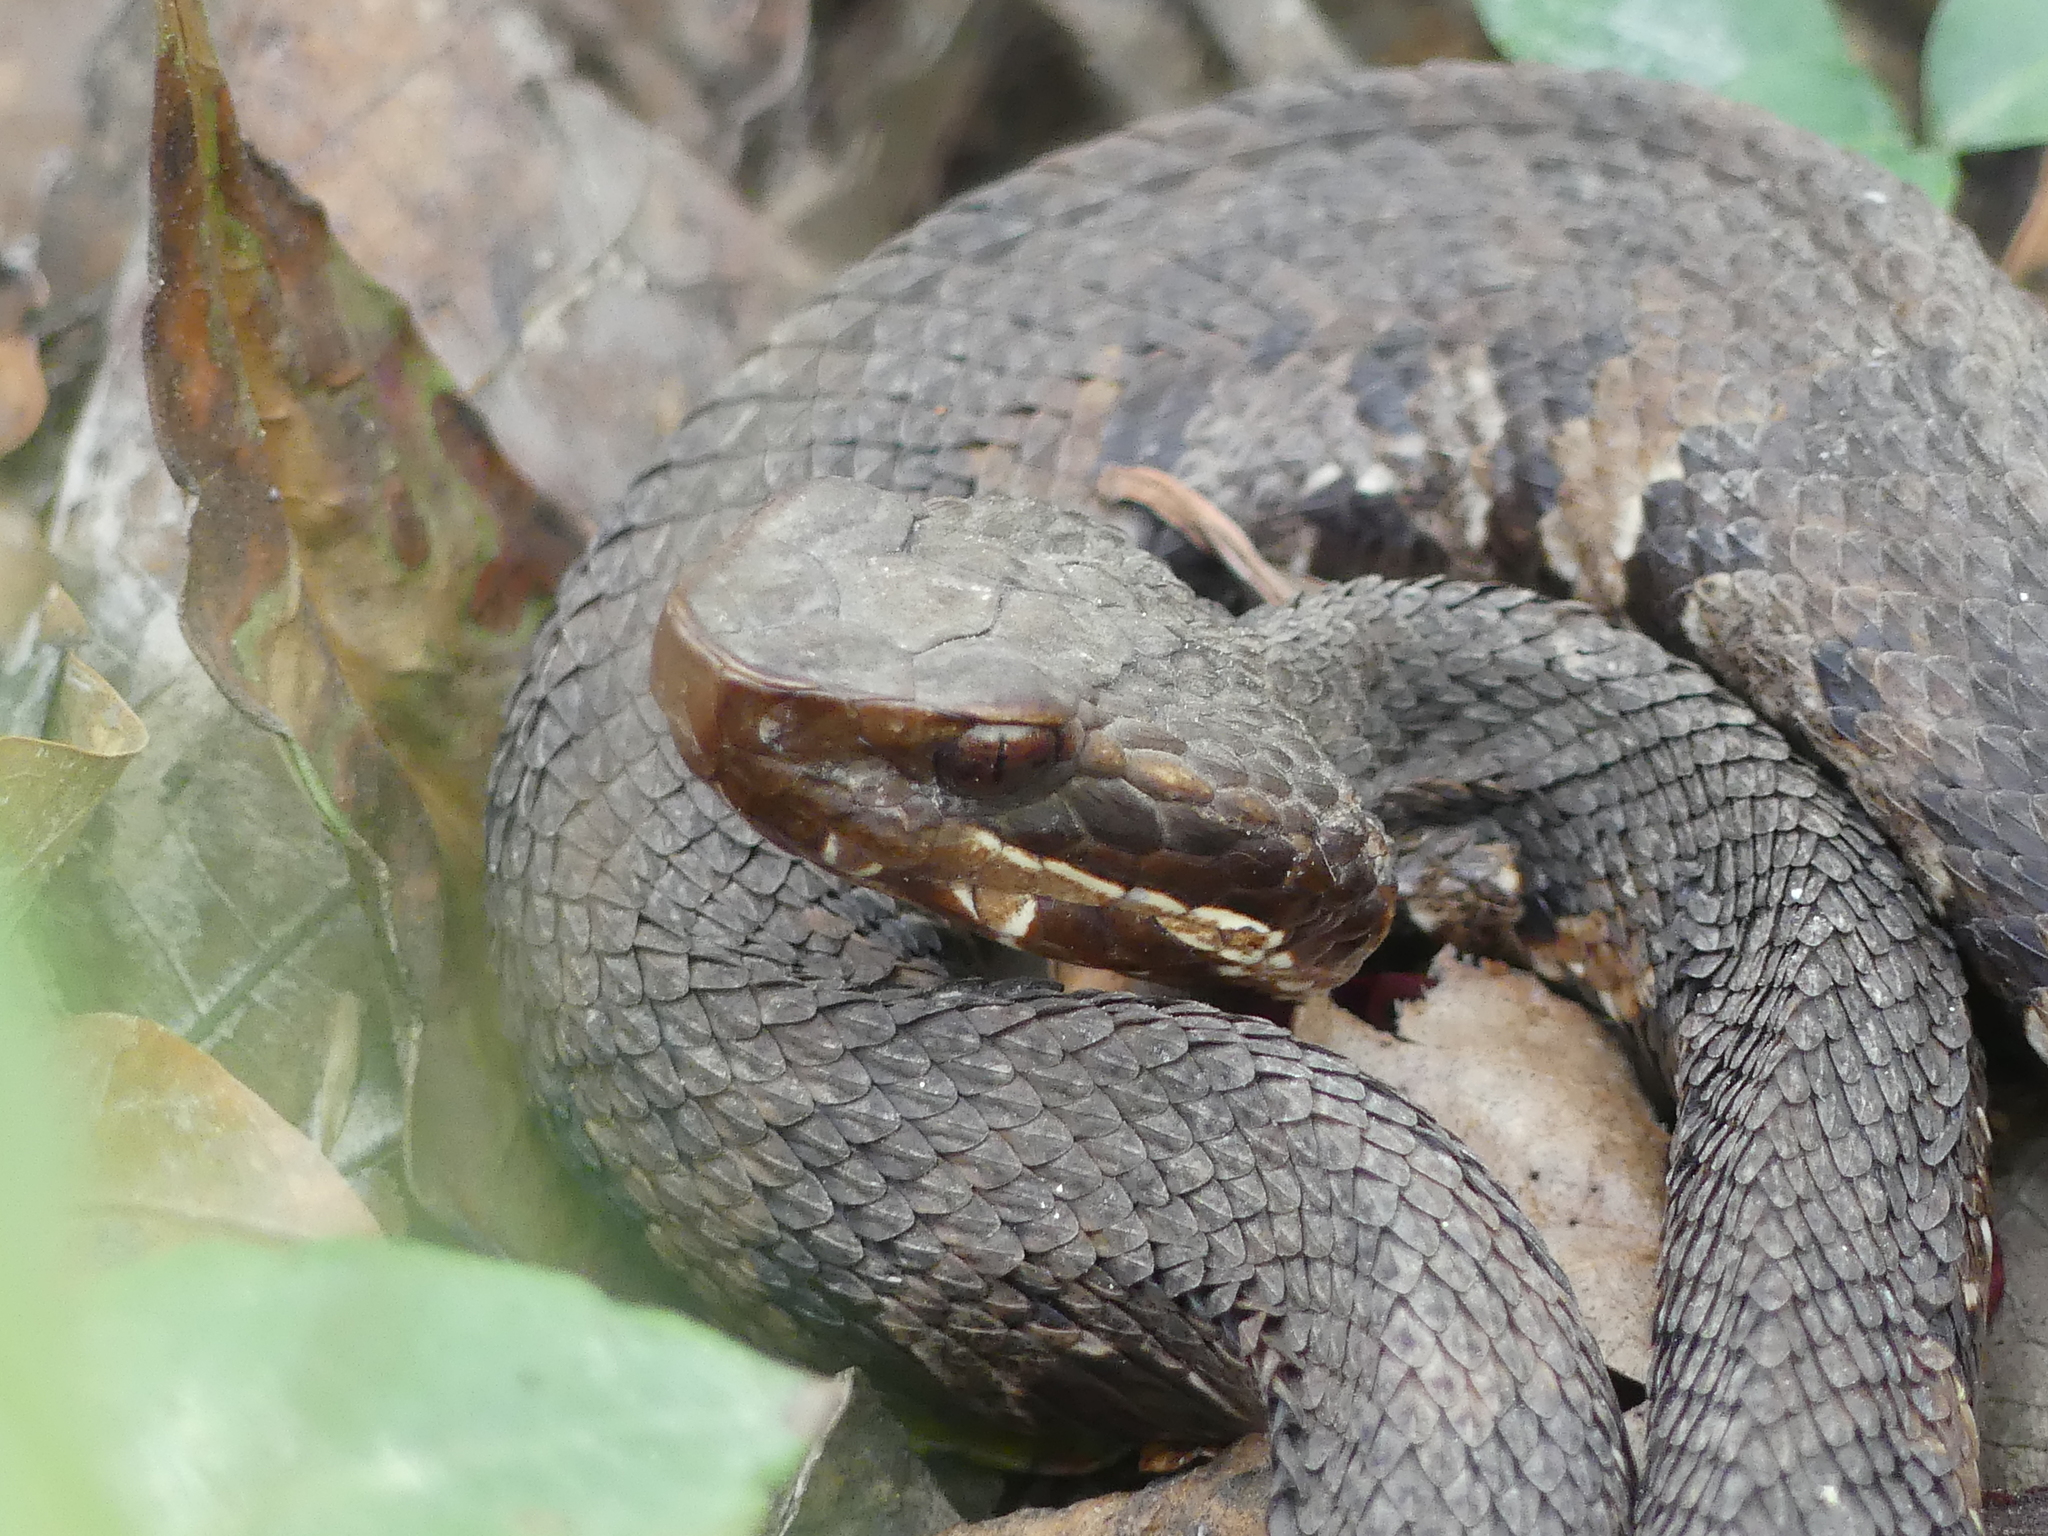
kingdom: Animalia
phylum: Chordata
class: Squamata
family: Viperidae
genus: Agkistrodon
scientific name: Agkistrodon piscivorus
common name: Cottonmouth
